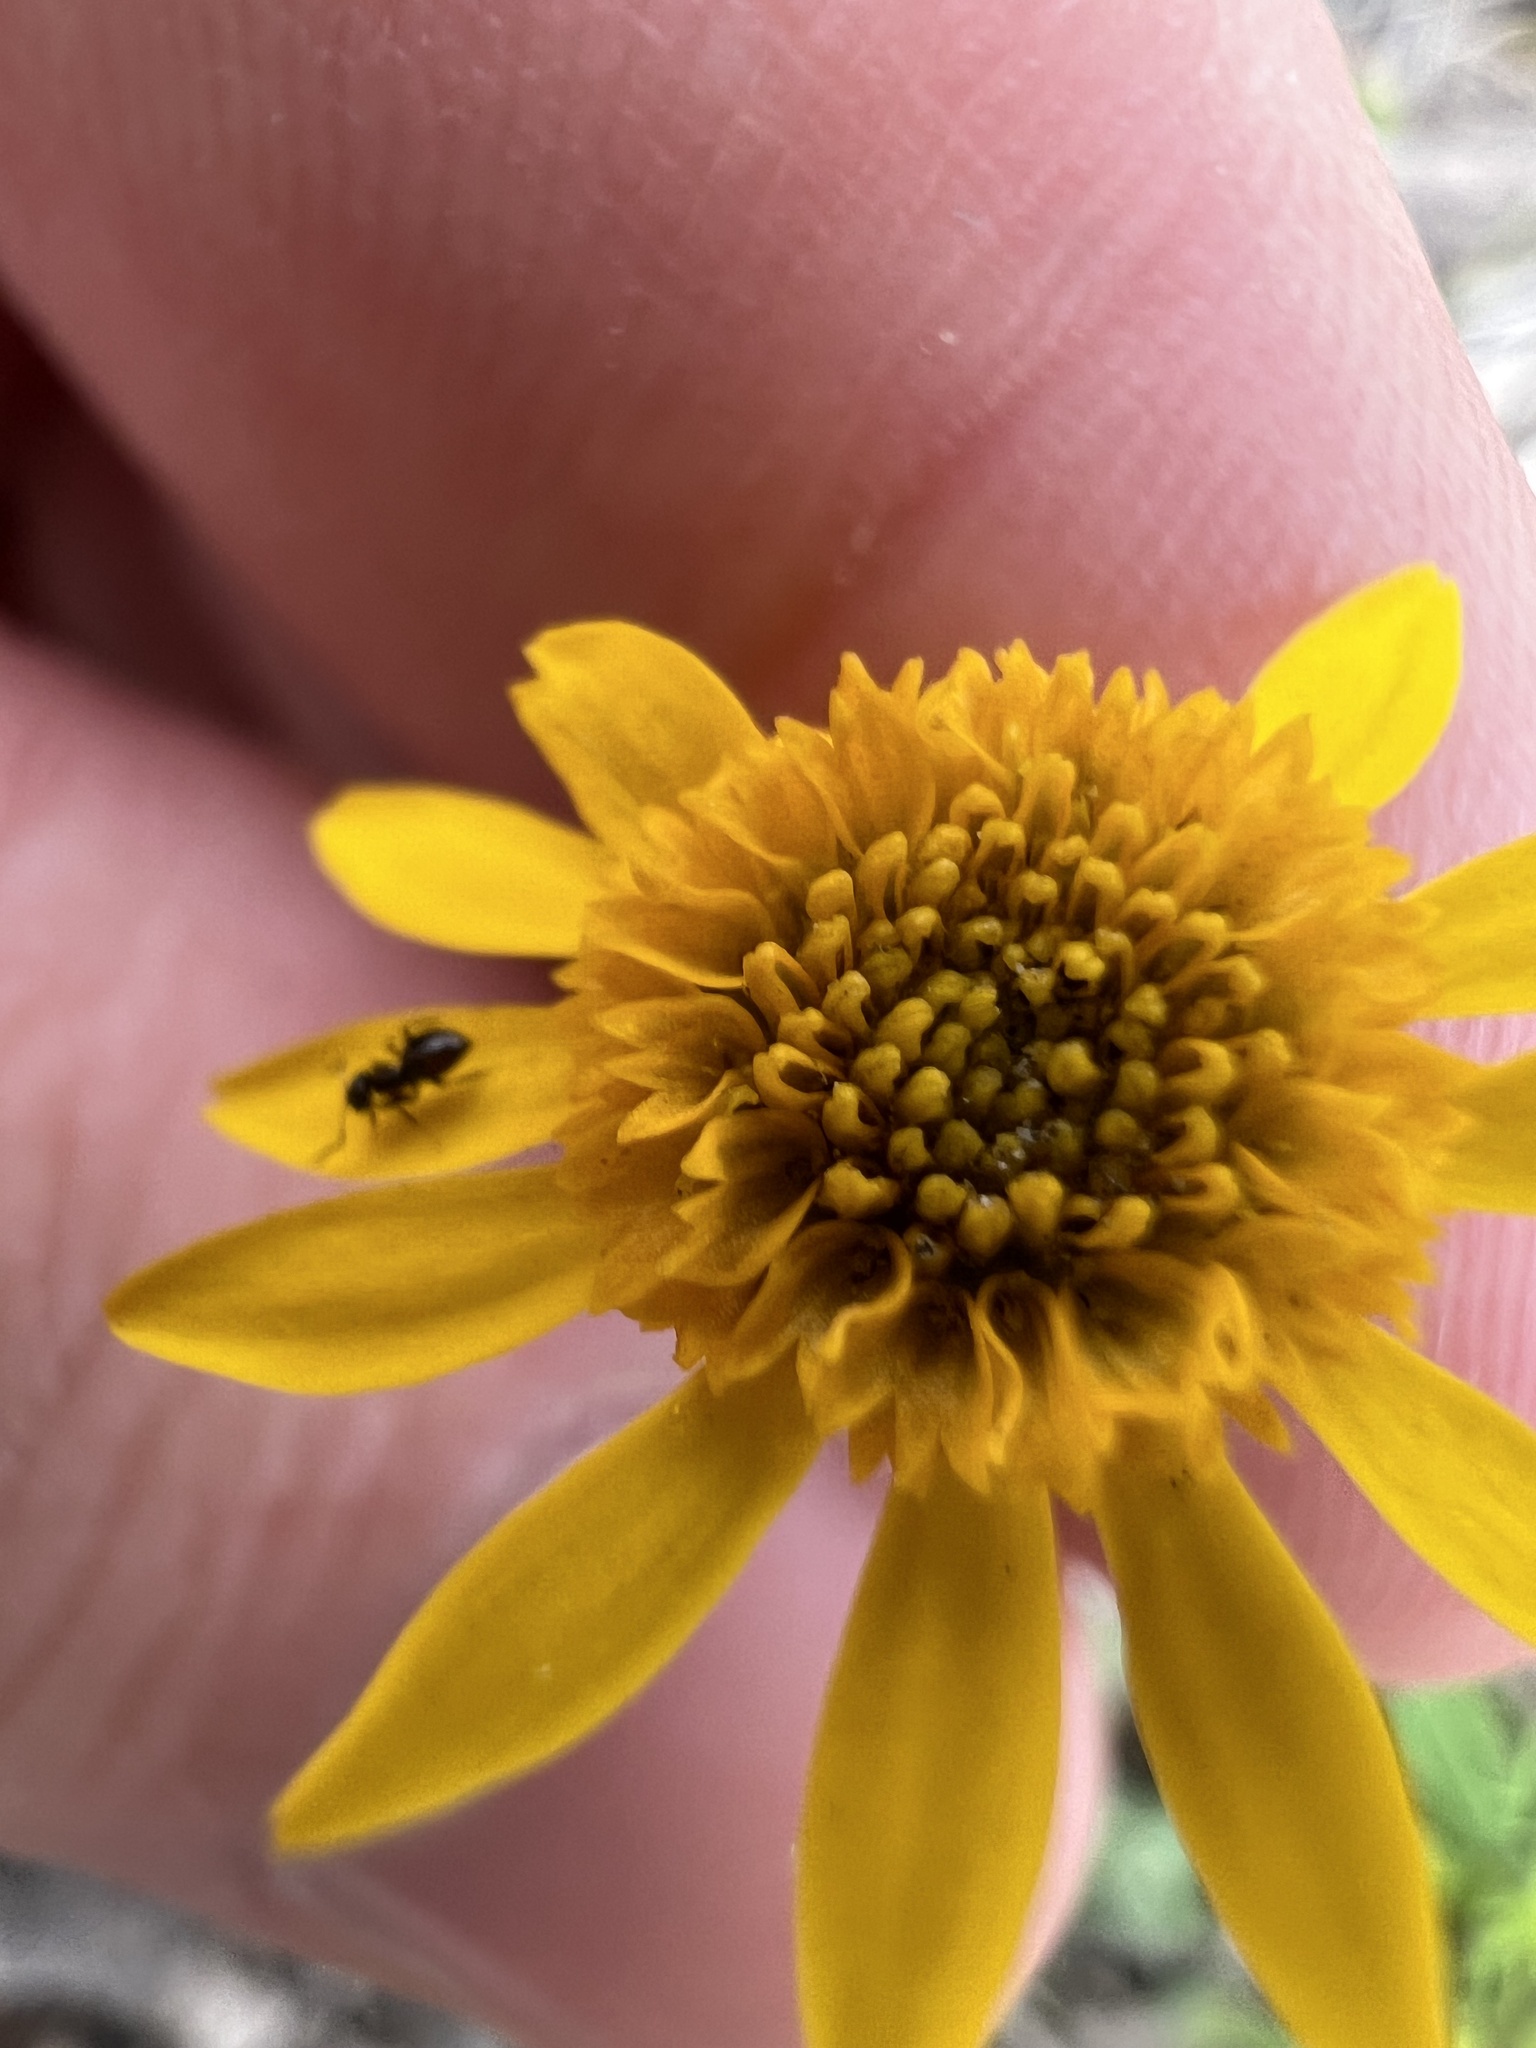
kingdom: Plantae
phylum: Tracheophyta
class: Magnoliopsida
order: Asterales
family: Asteraceae
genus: Thymophylla
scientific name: Thymophylla tenuiloba
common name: Dahlberg's daisy
